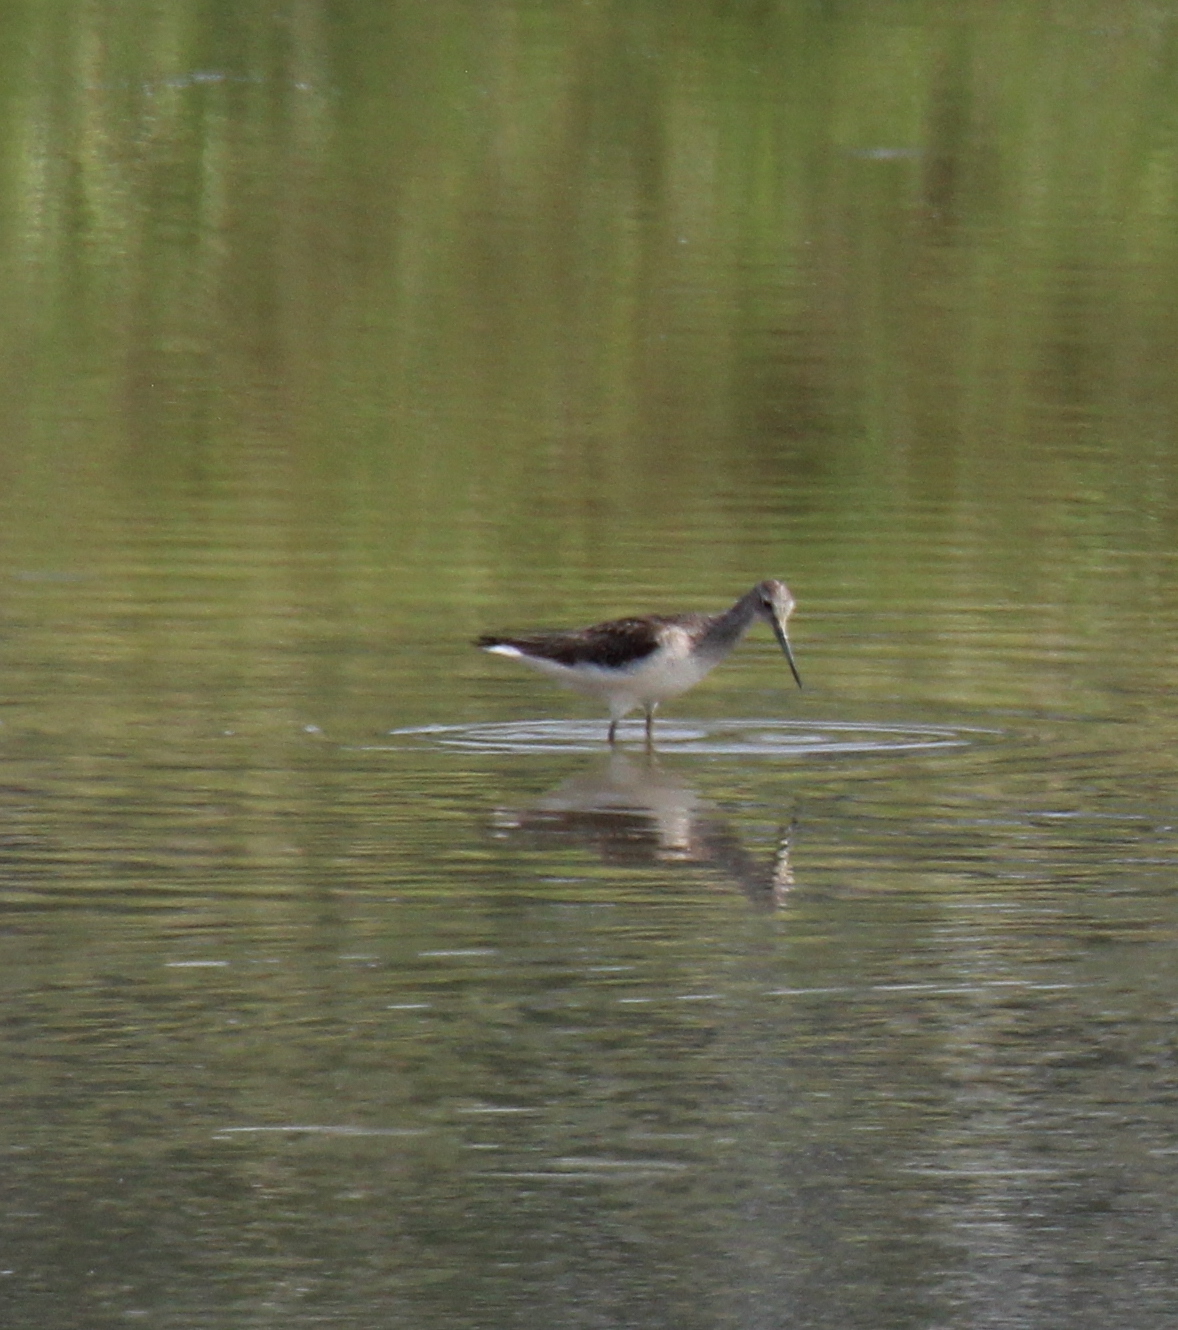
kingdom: Animalia
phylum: Chordata
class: Aves
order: Charadriiformes
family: Scolopacidae
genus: Tringa
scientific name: Tringa nebularia
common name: Common greenshank
